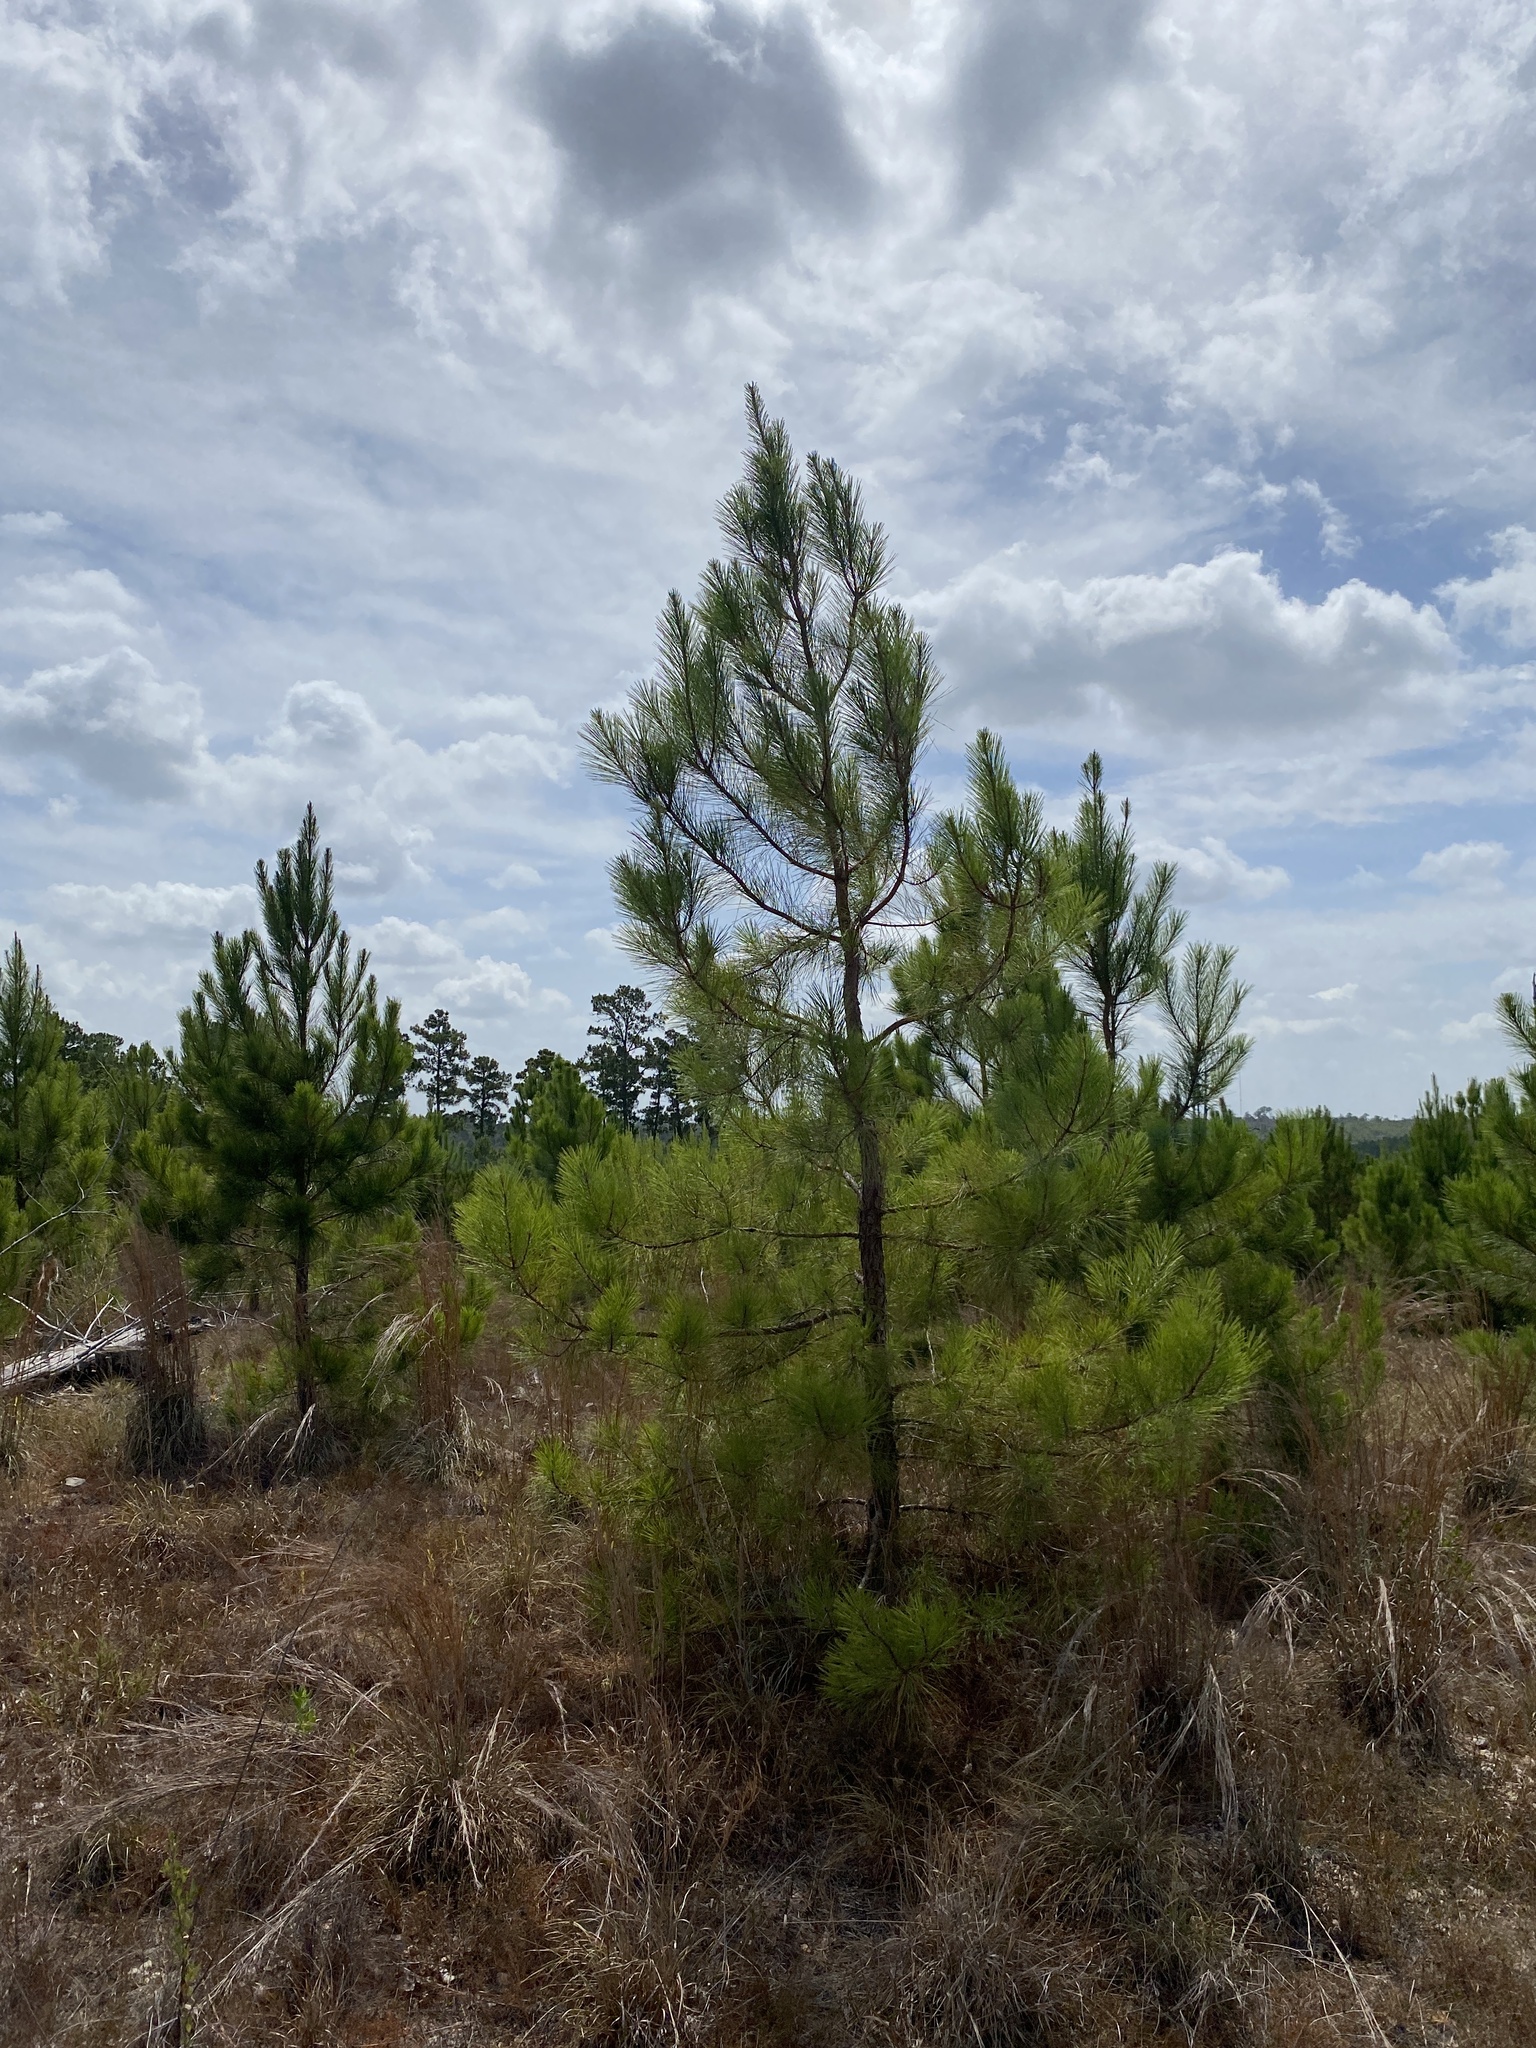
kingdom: Plantae
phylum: Tracheophyta
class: Pinopsida
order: Pinales
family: Pinaceae
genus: Pinus
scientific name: Pinus taeda
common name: Loblolly pine
